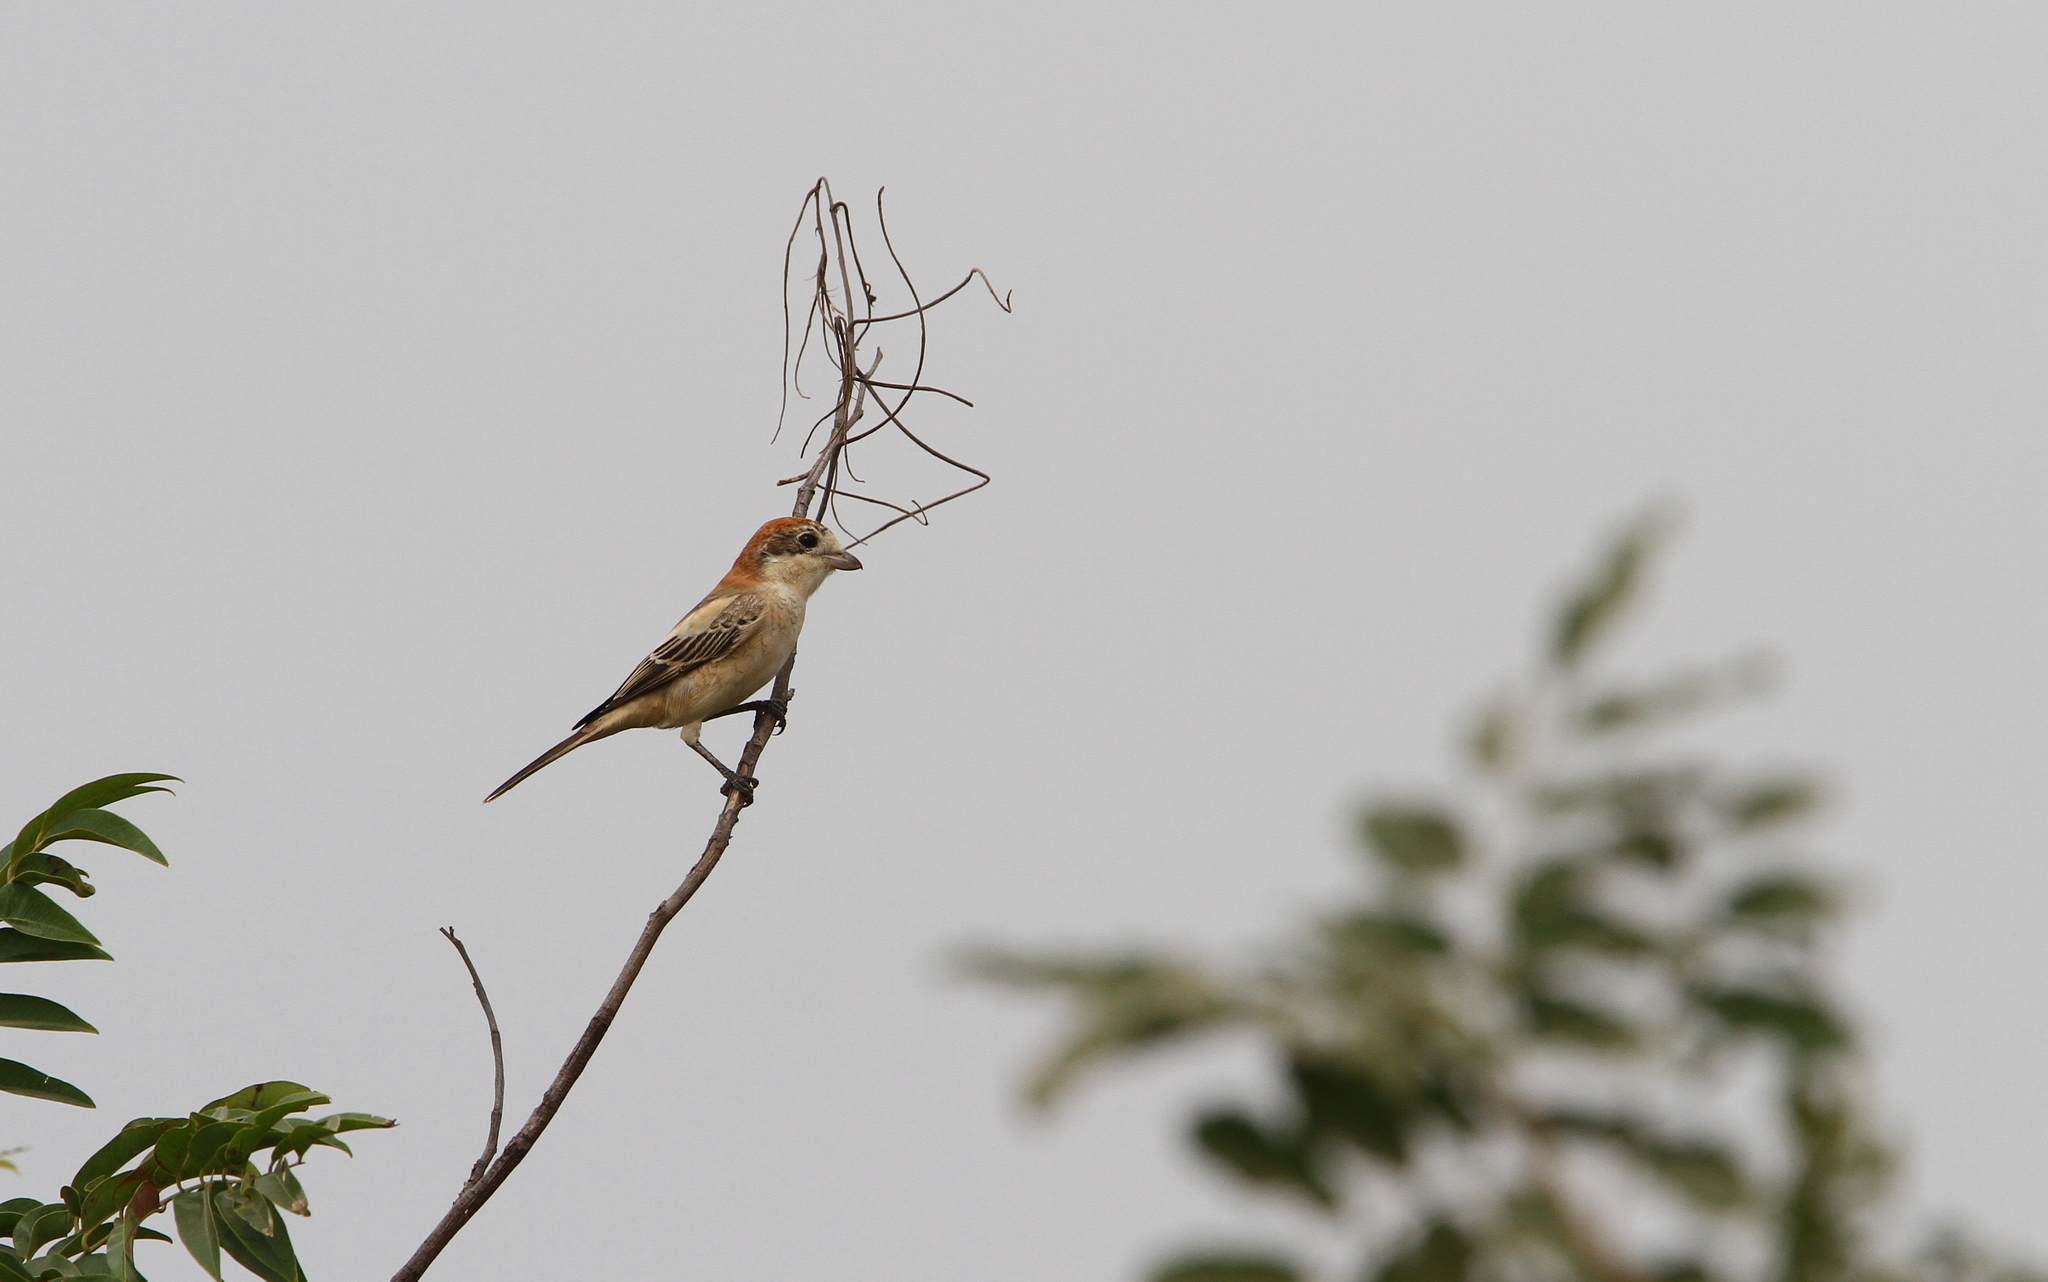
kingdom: Animalia
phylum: Chordata
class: Aves
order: Passeriformes
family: Laniidae
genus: Lanius
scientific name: Lanius senator
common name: Woodchat shrike
